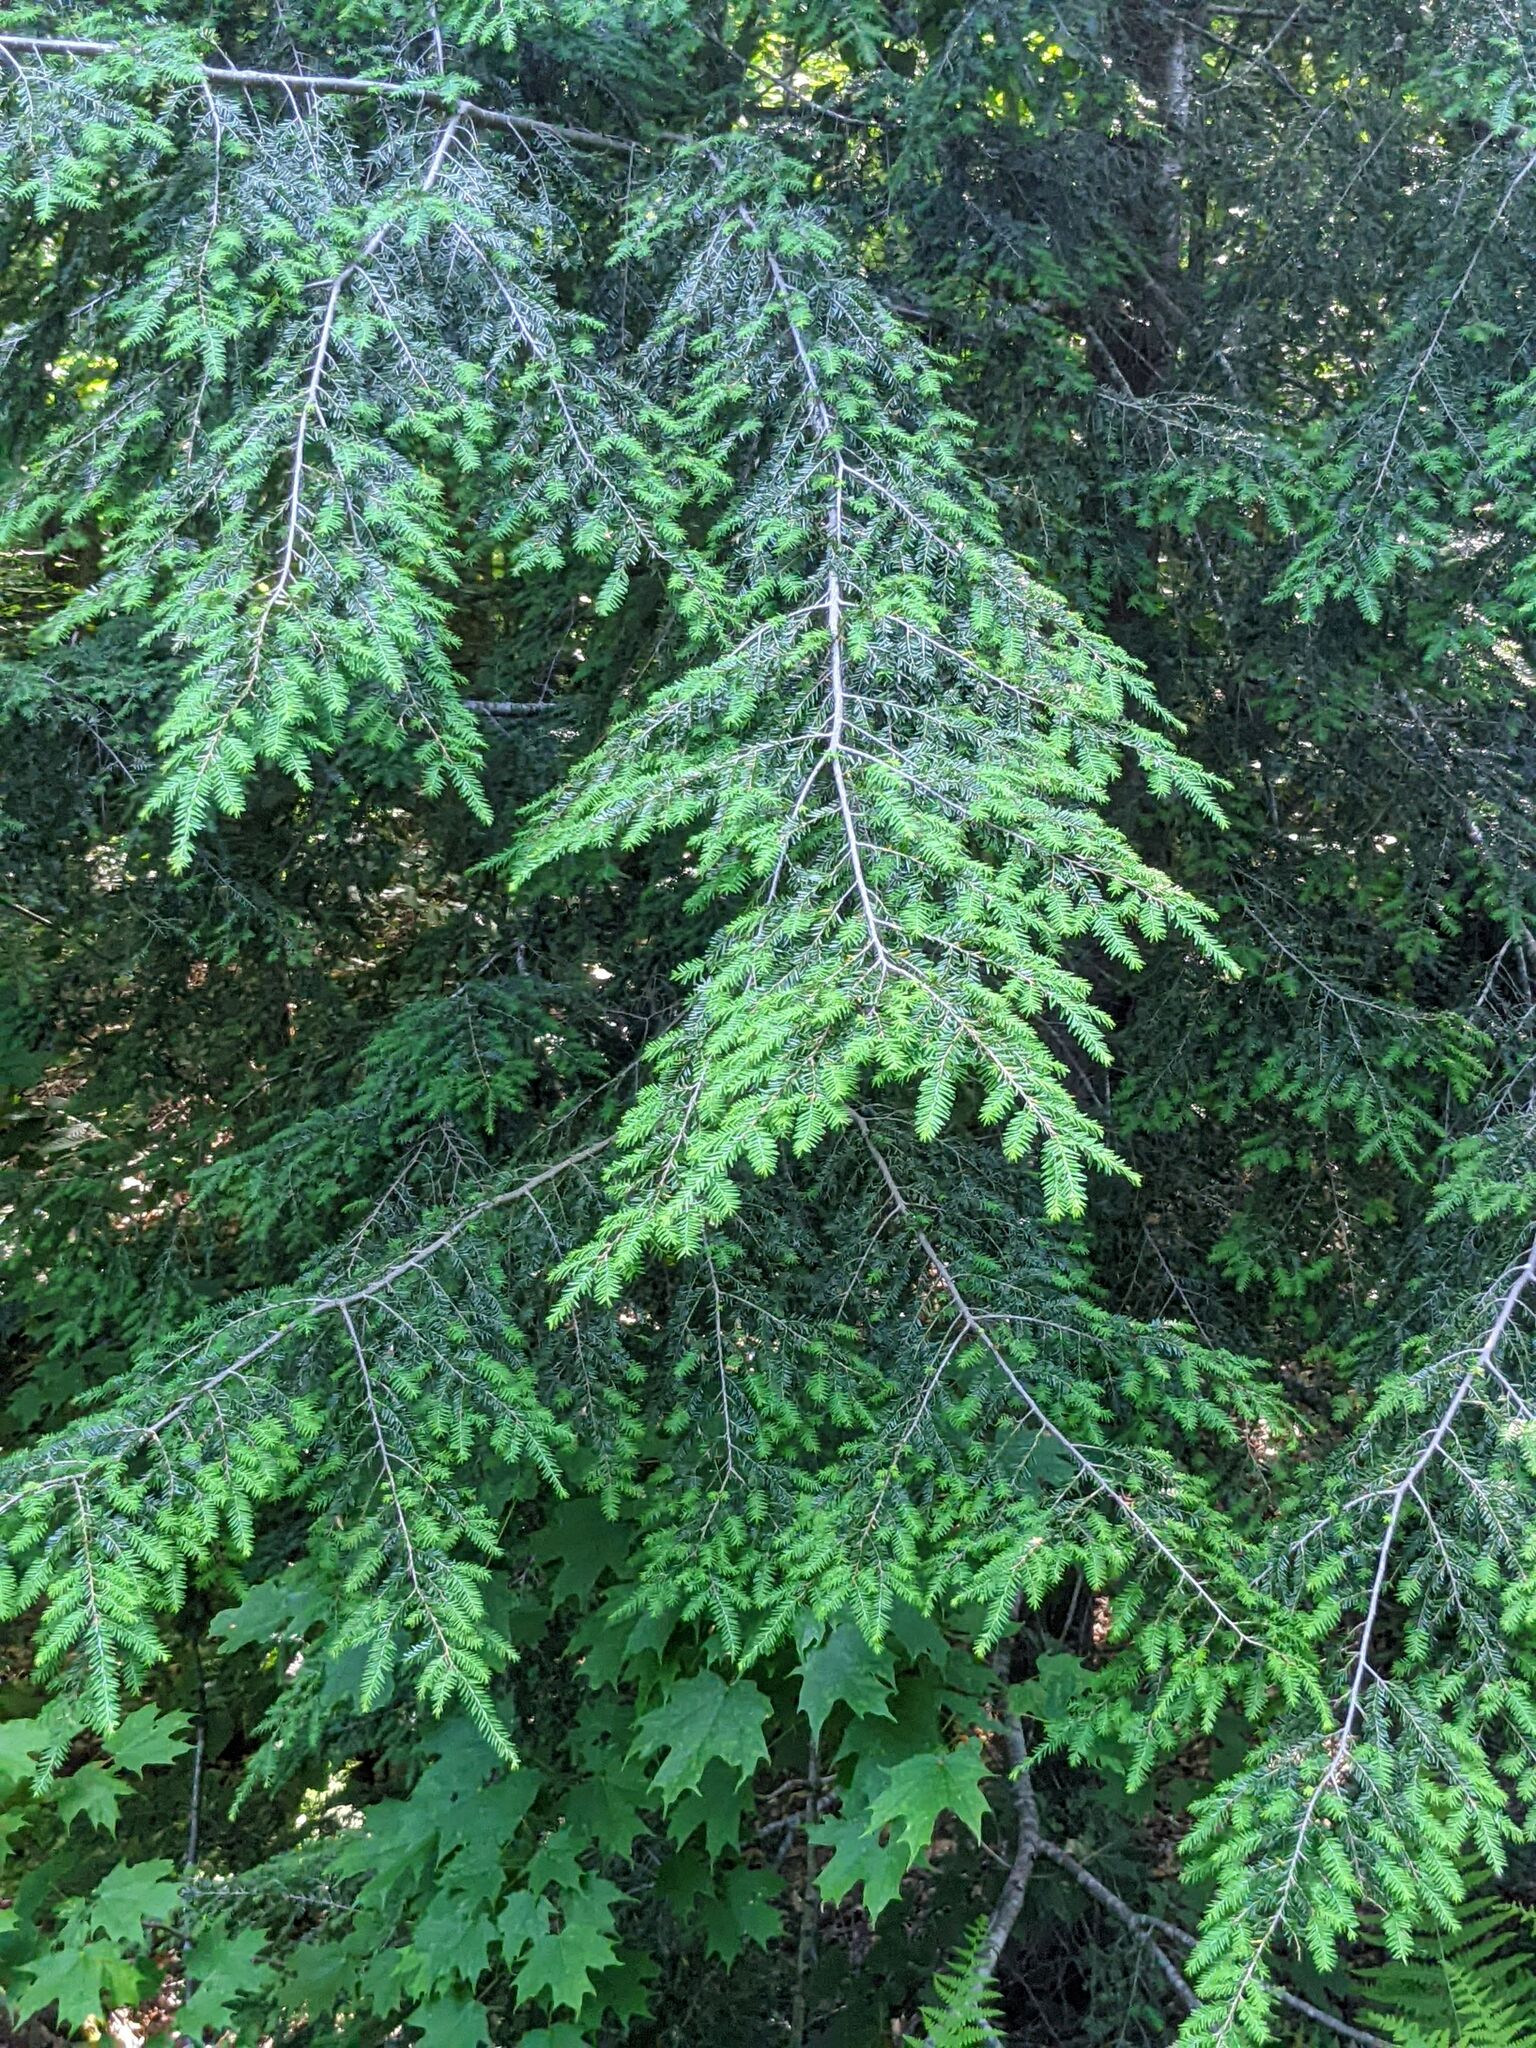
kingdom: Plantae
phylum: Tracheophyta
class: Pinopsida
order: Pinales
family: Pinaceae
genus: Tsuga
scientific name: Tsuga canadensis
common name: Eastern hemlock
